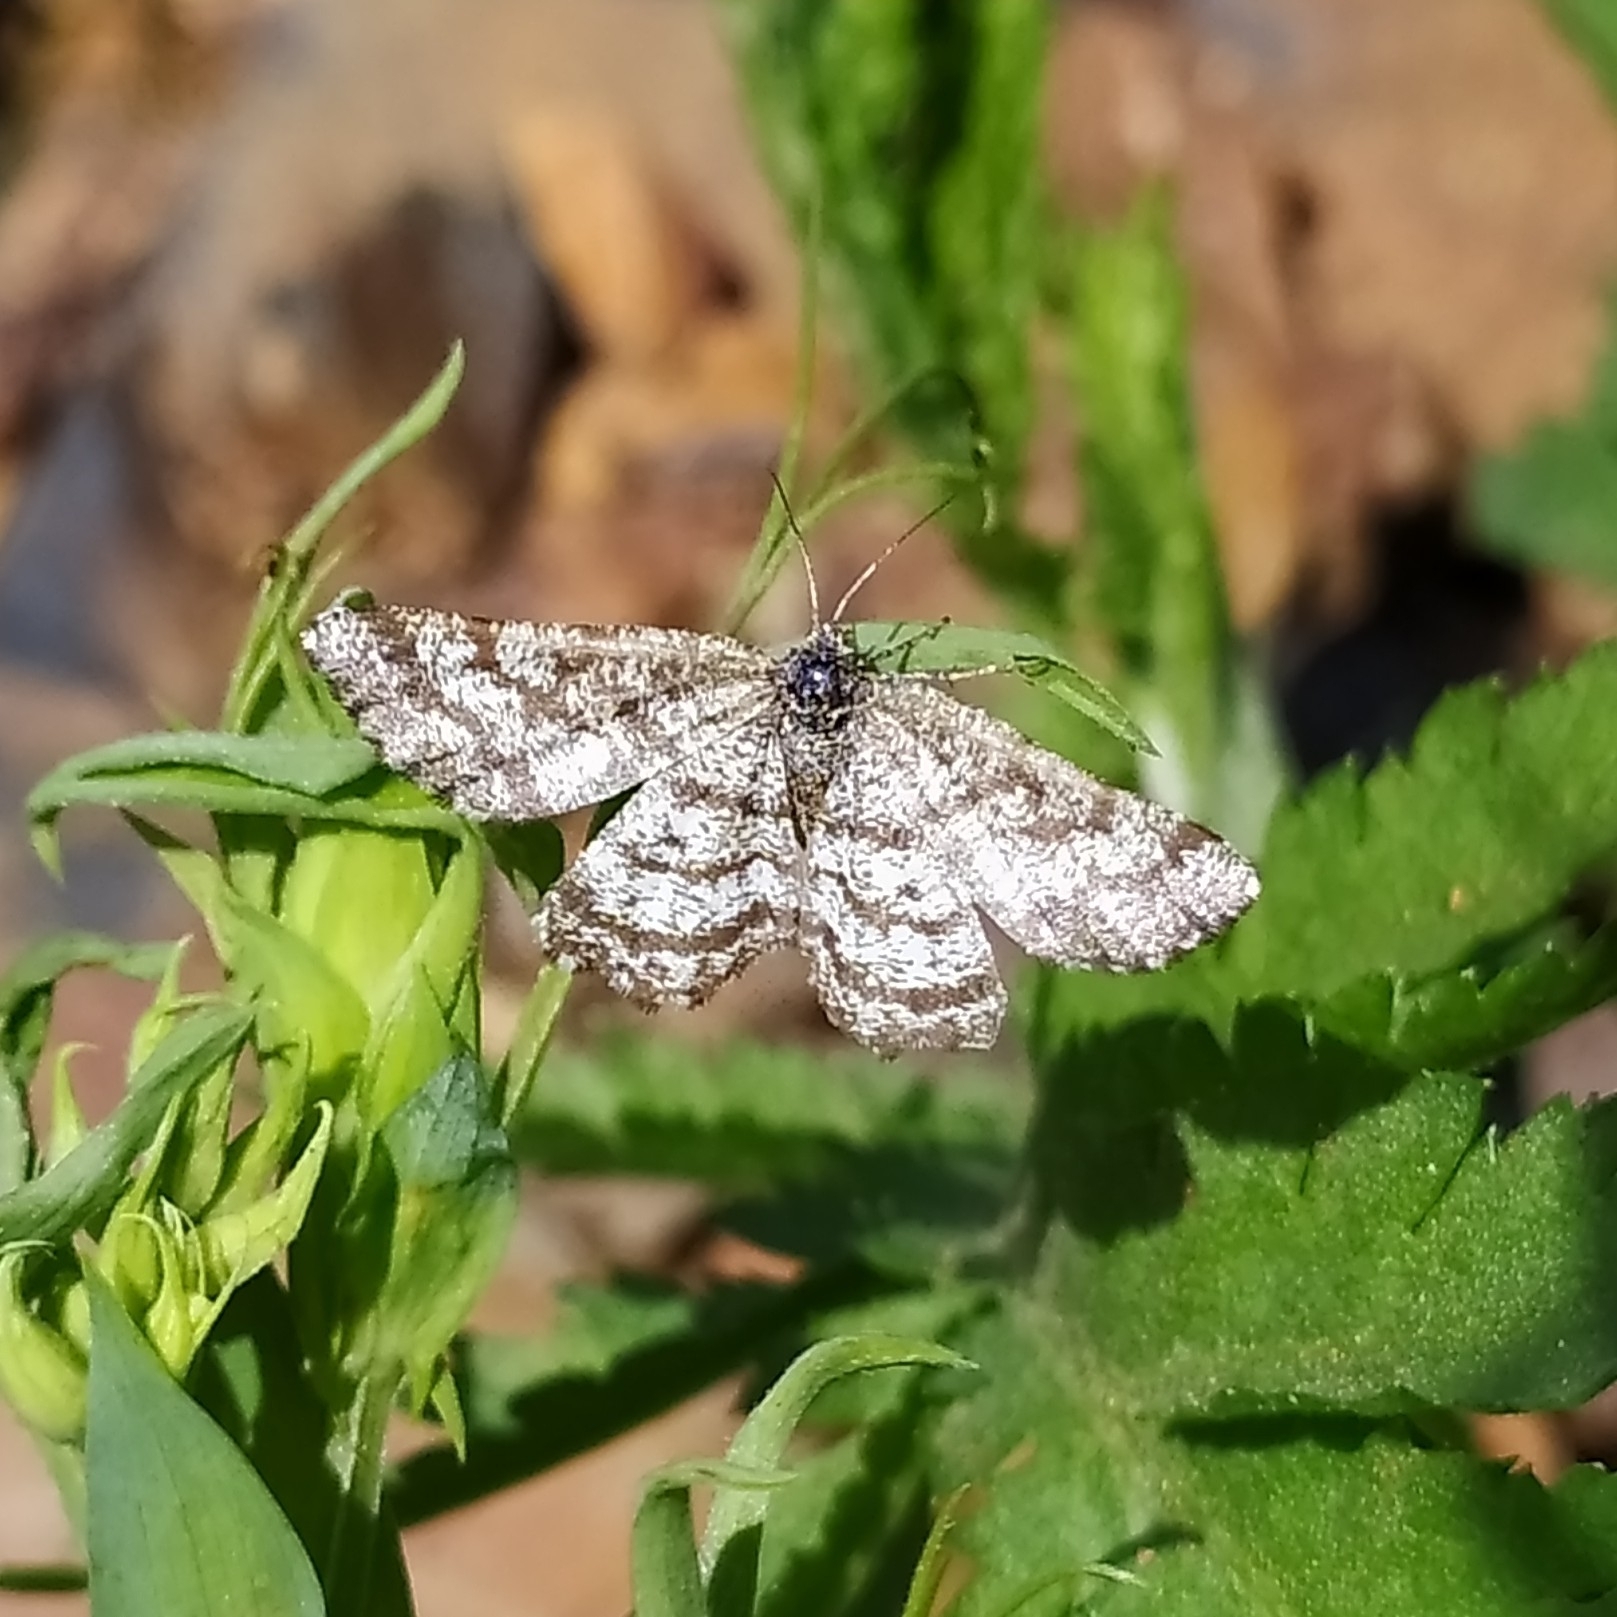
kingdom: Animalia
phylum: Arthropoda
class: Insecta
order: Lepidoptera
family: Geometridae
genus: Ematurga
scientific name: Ematurga atomaria
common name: Common heath
